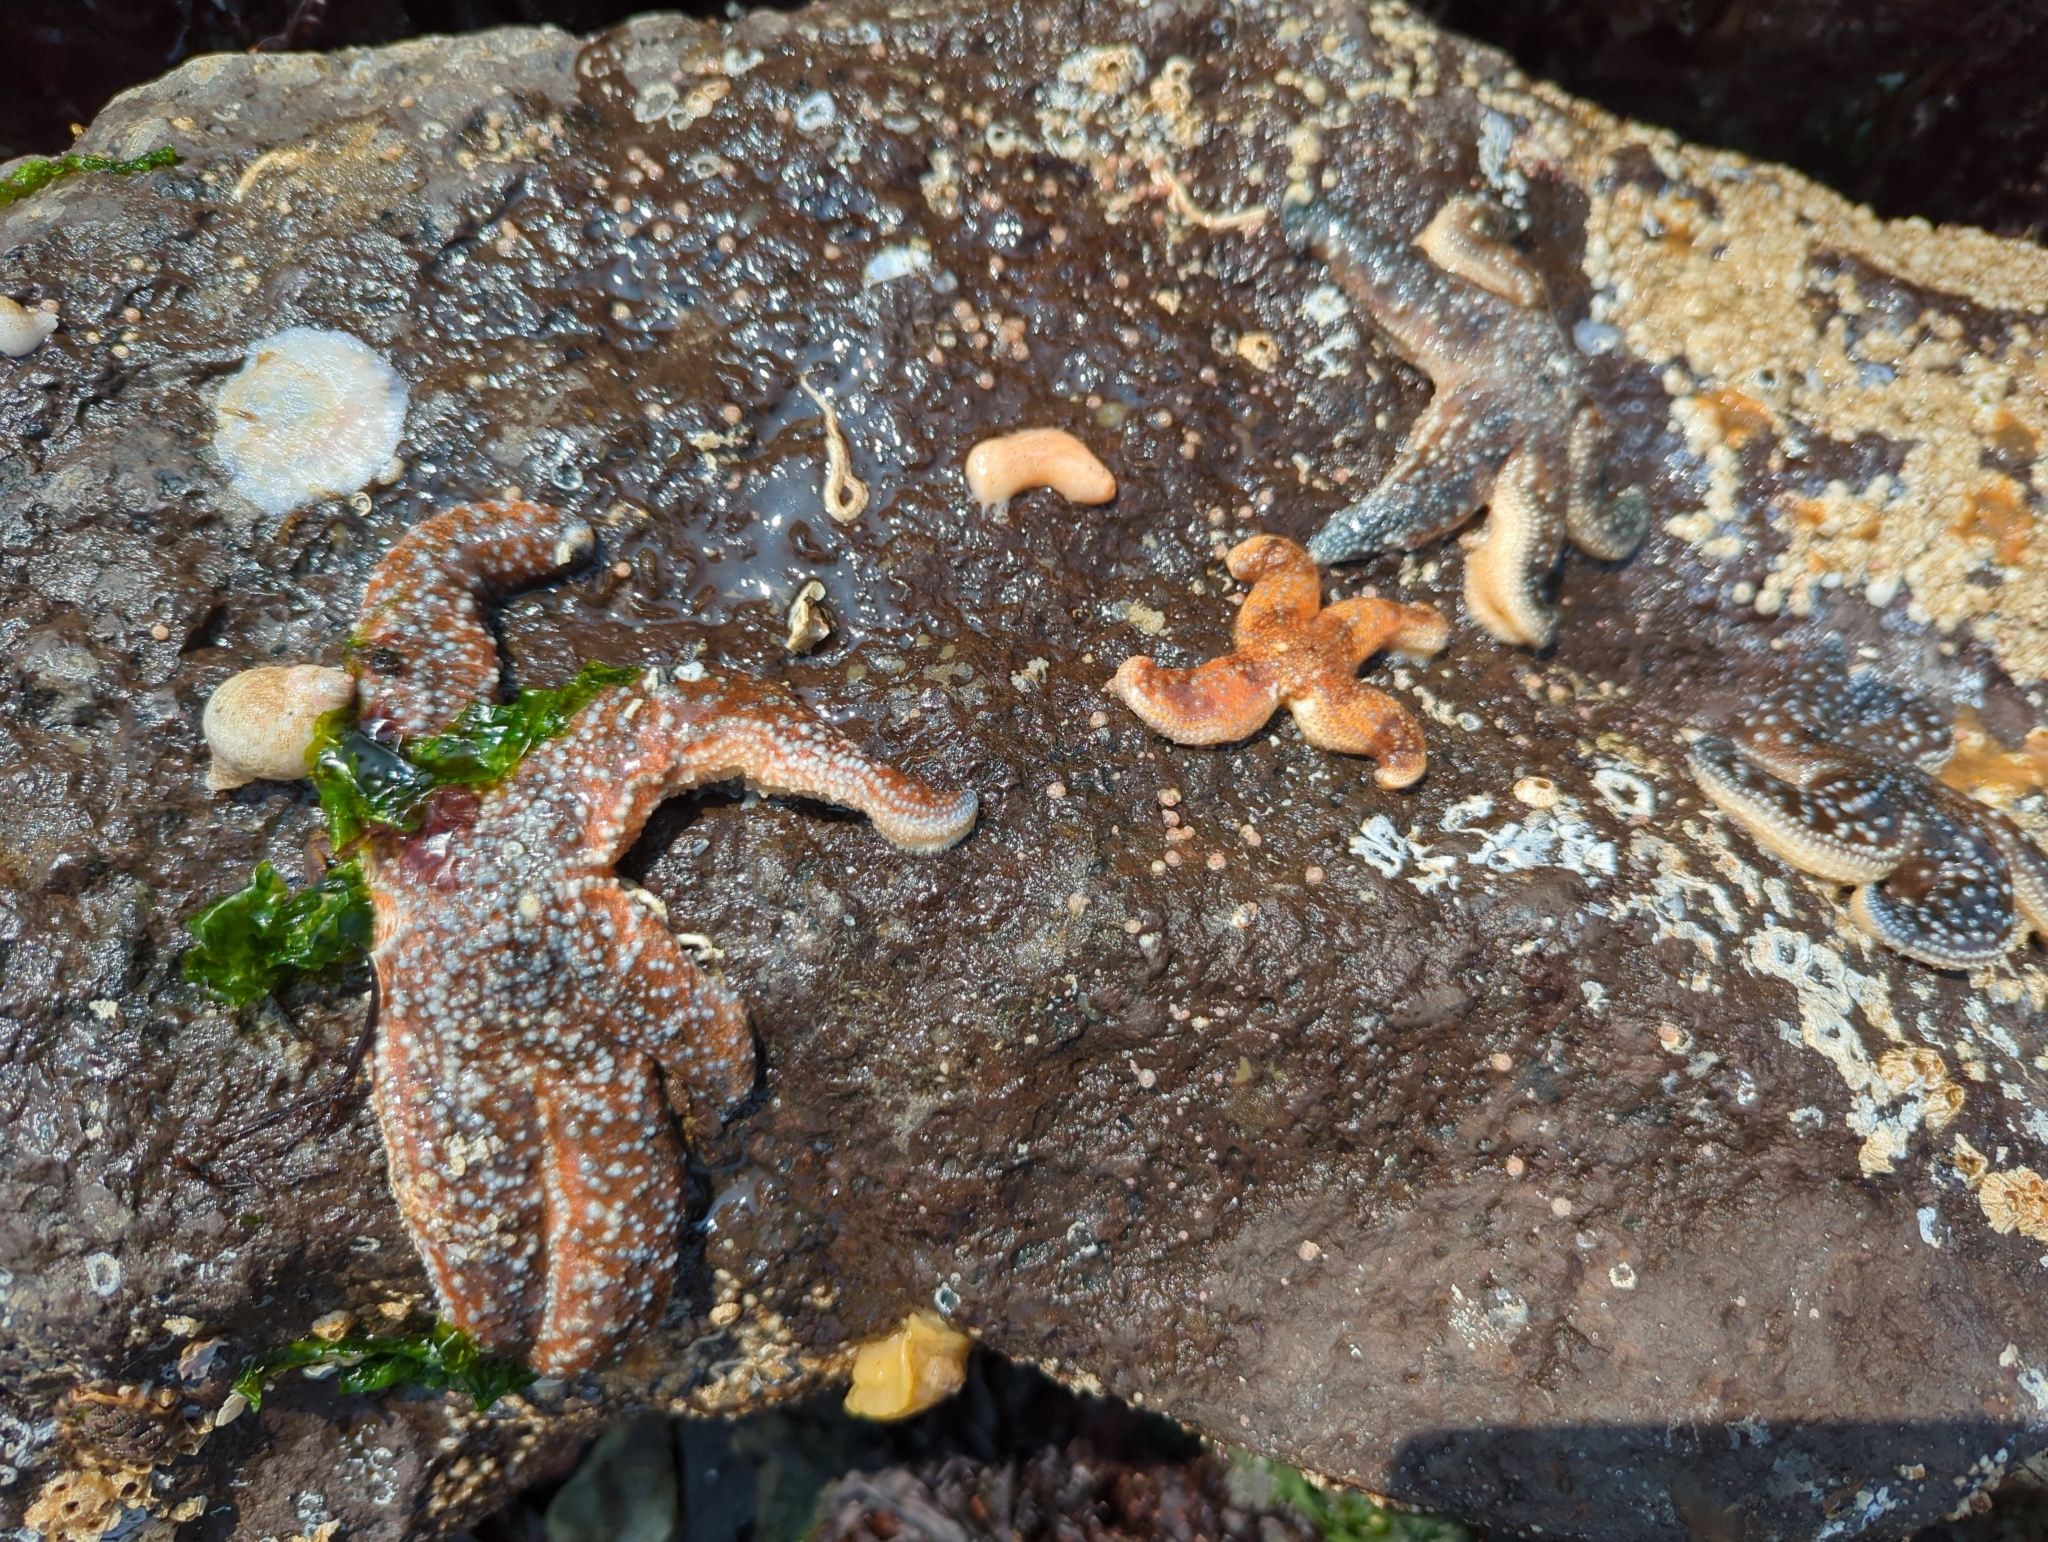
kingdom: Animalia
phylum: Mollusca
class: Gastropoda
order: Nudibranchia
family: Discodorididae
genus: Geitodoris
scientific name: Geitodoris heathi
